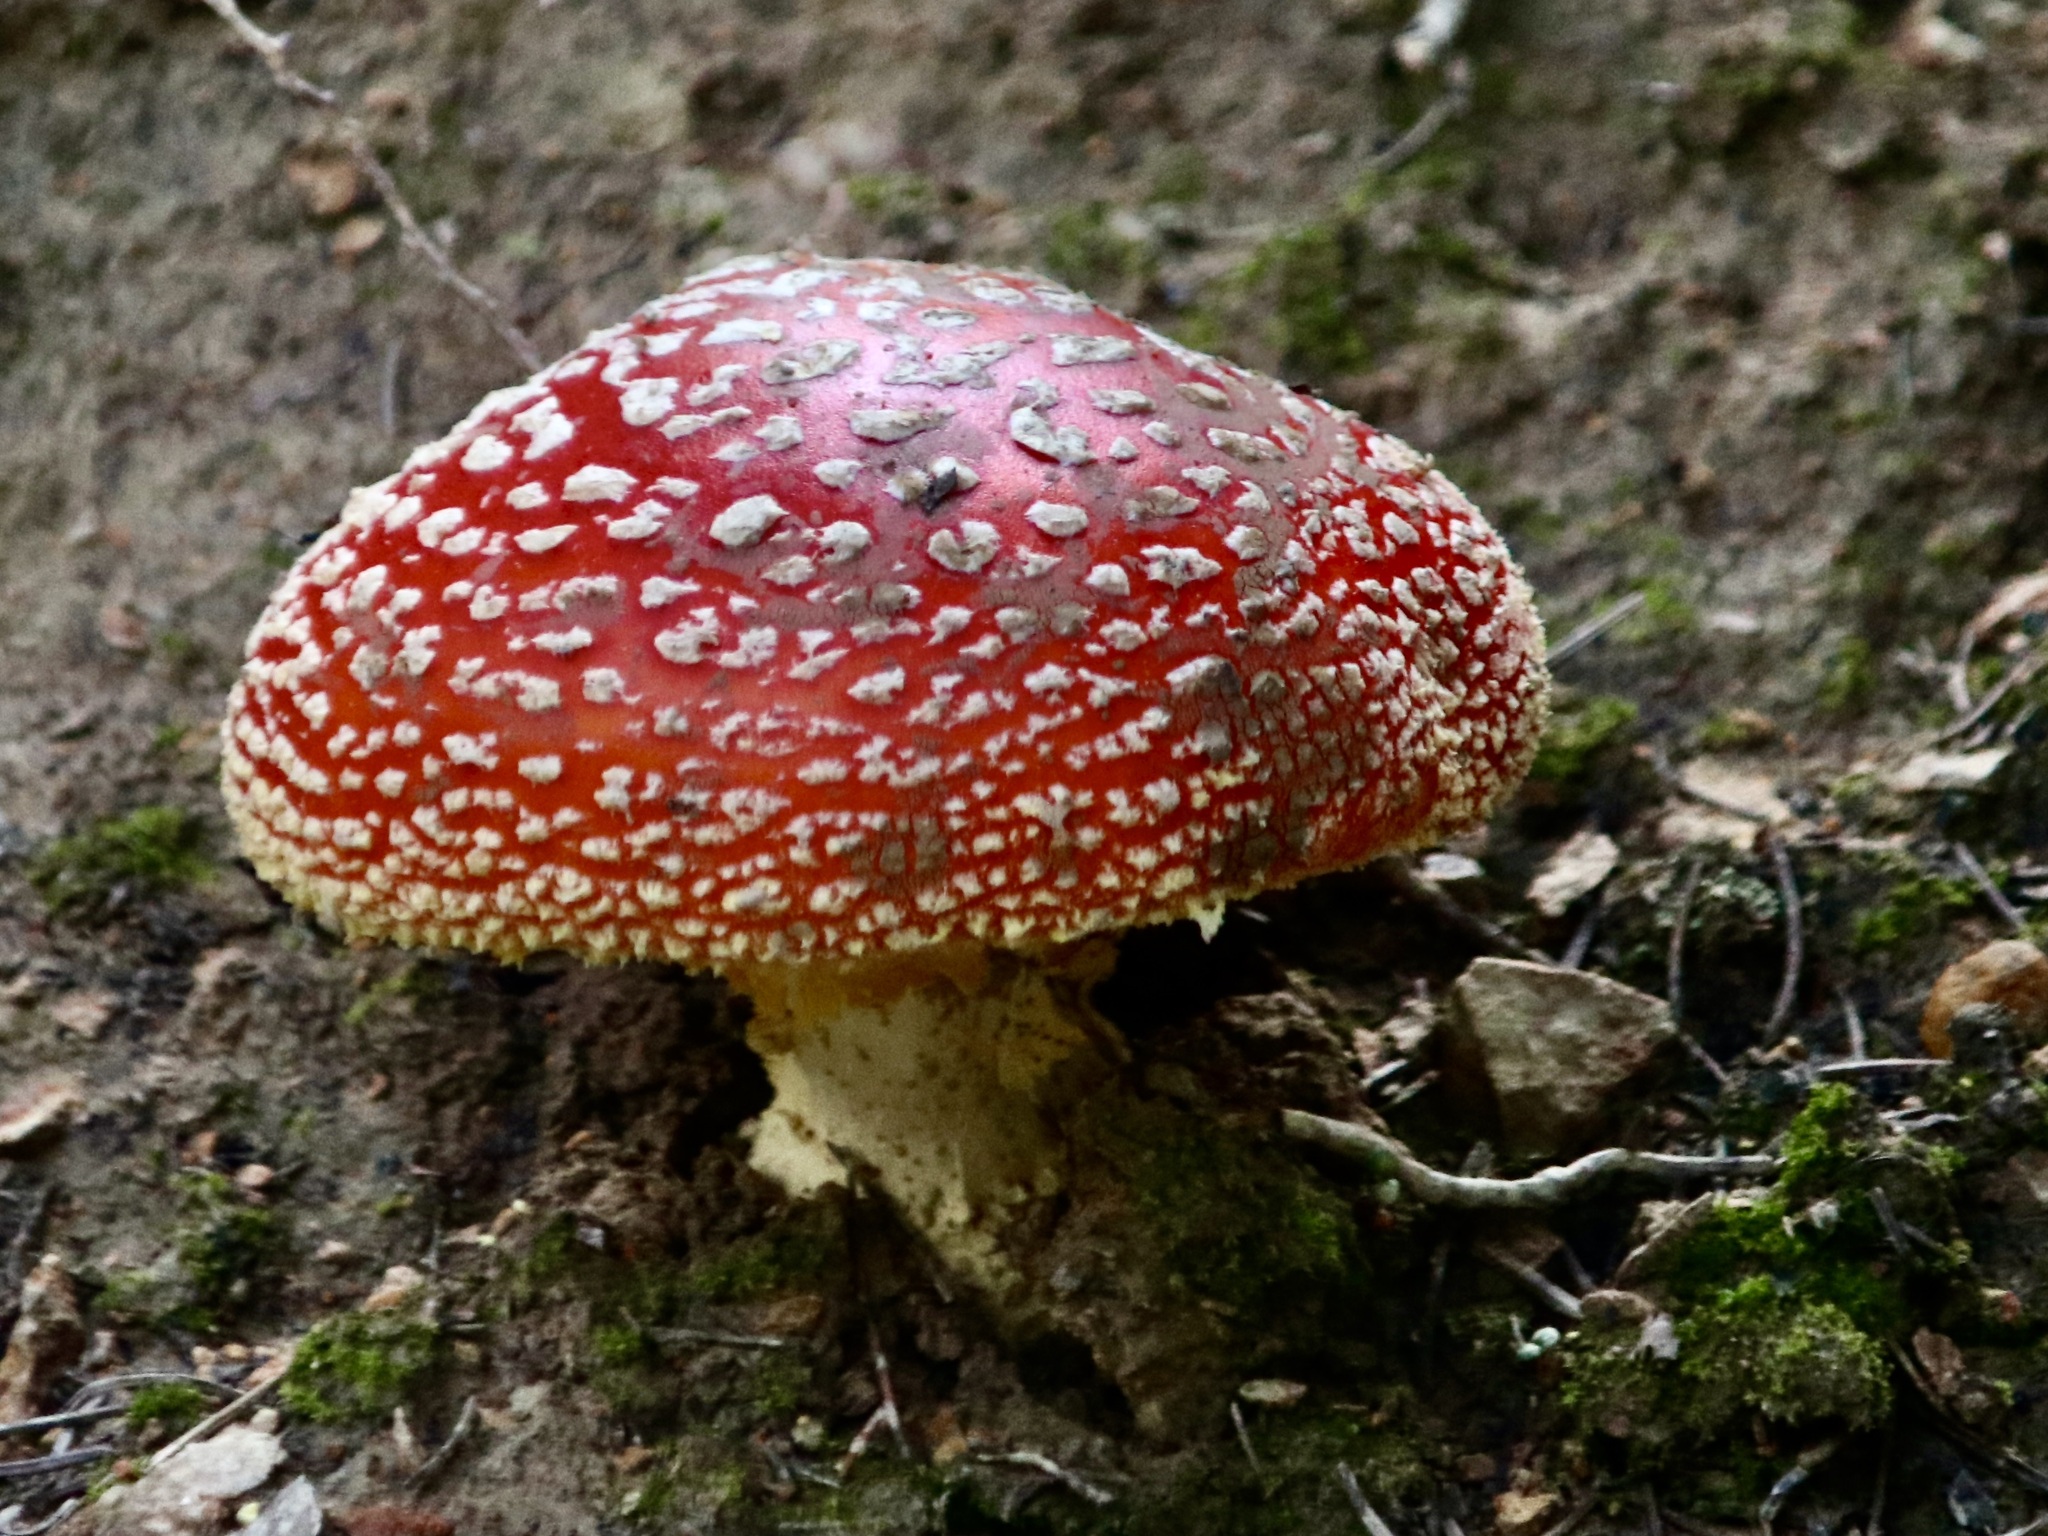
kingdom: Fungi
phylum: Basidiomycota
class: Agaricomycetes
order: Agaricales
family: Amanitaceae
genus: Amanita
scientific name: Amanita muscaria
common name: Fly agaric
